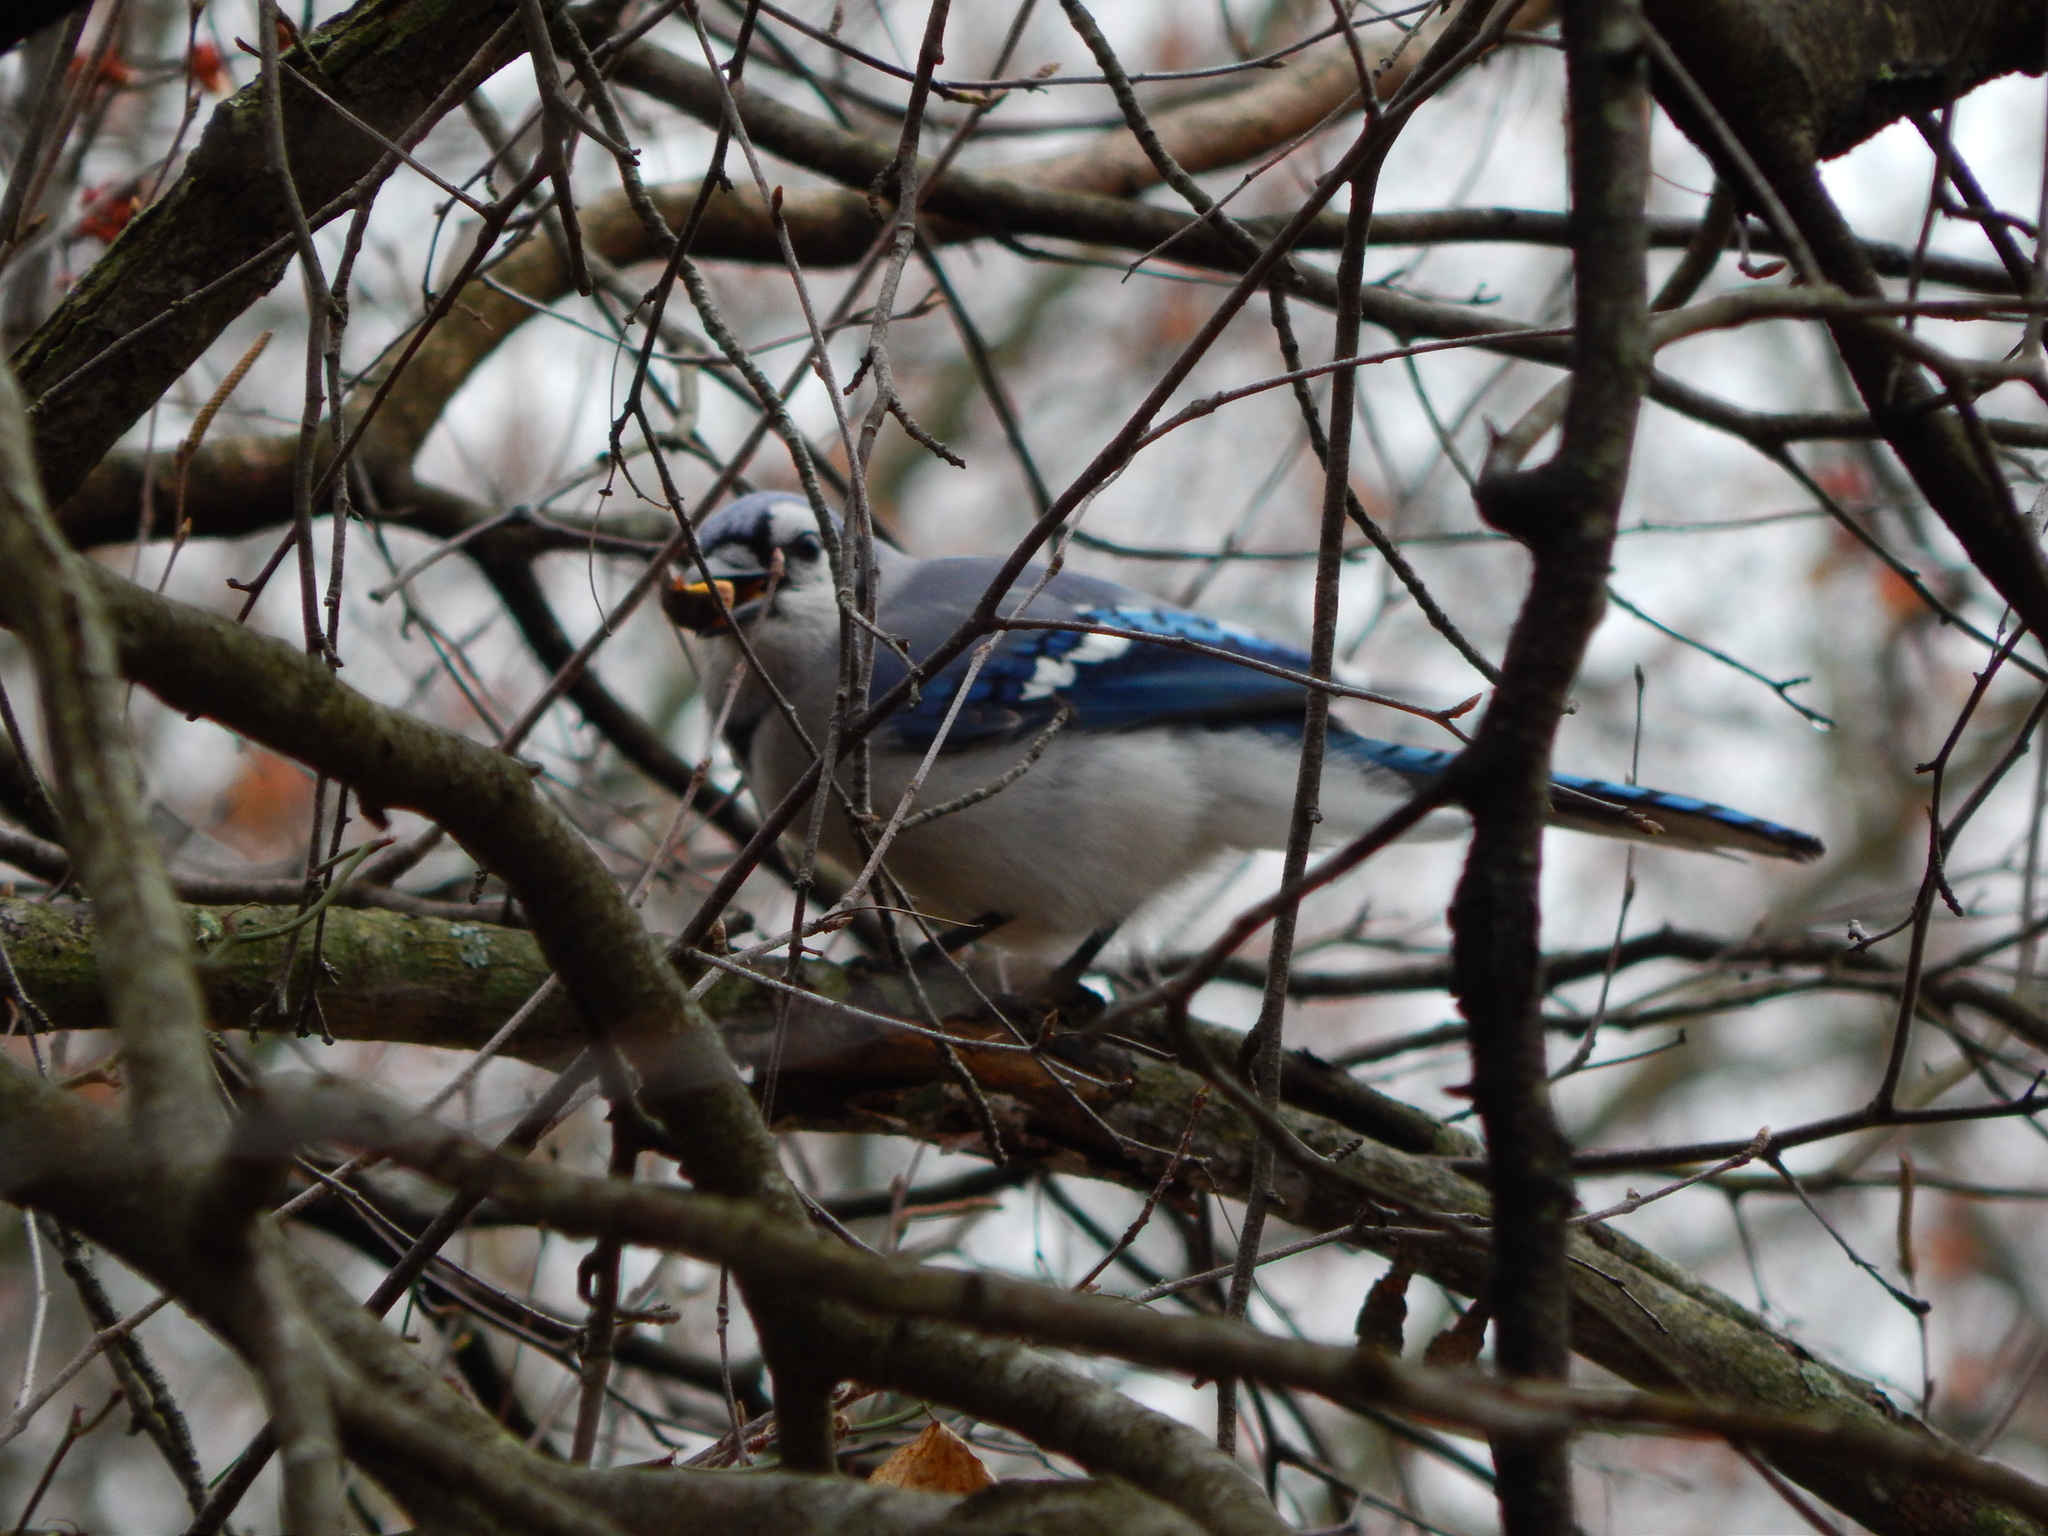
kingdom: Animalia
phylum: Chordata
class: Aves
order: Passeriformes
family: Corvidae
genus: Cyanocitta
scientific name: Cyanocitta cristata
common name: Blue jay
